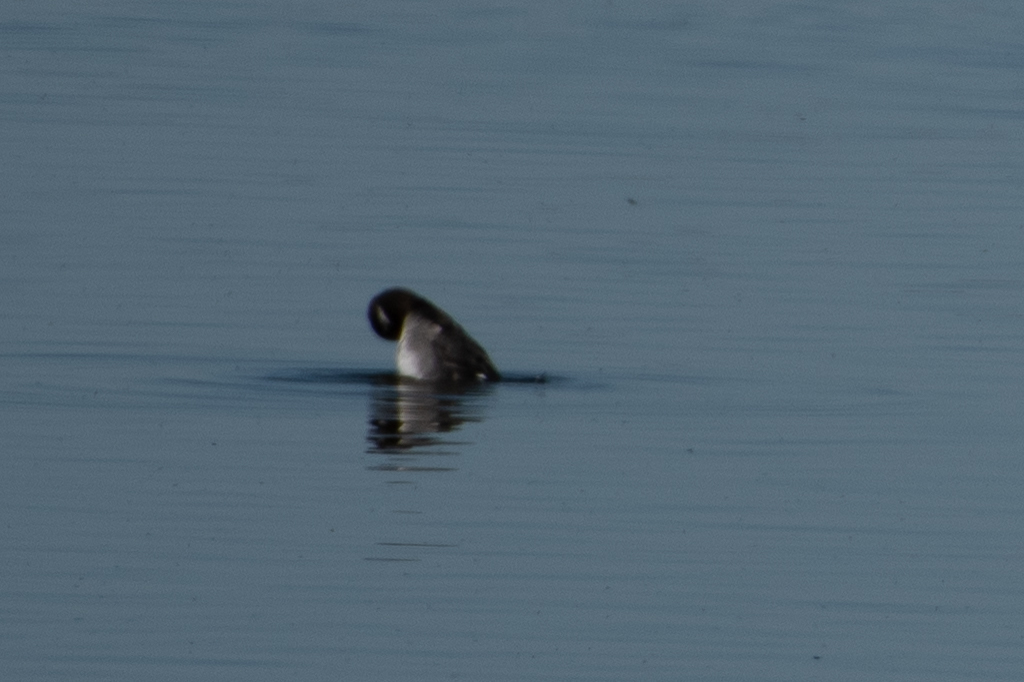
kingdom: Animalia
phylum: Chordata
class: Aves
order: Anseriformes
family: Anatidae
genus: Bucephala
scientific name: Bucephala albeola
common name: Bufflehead
